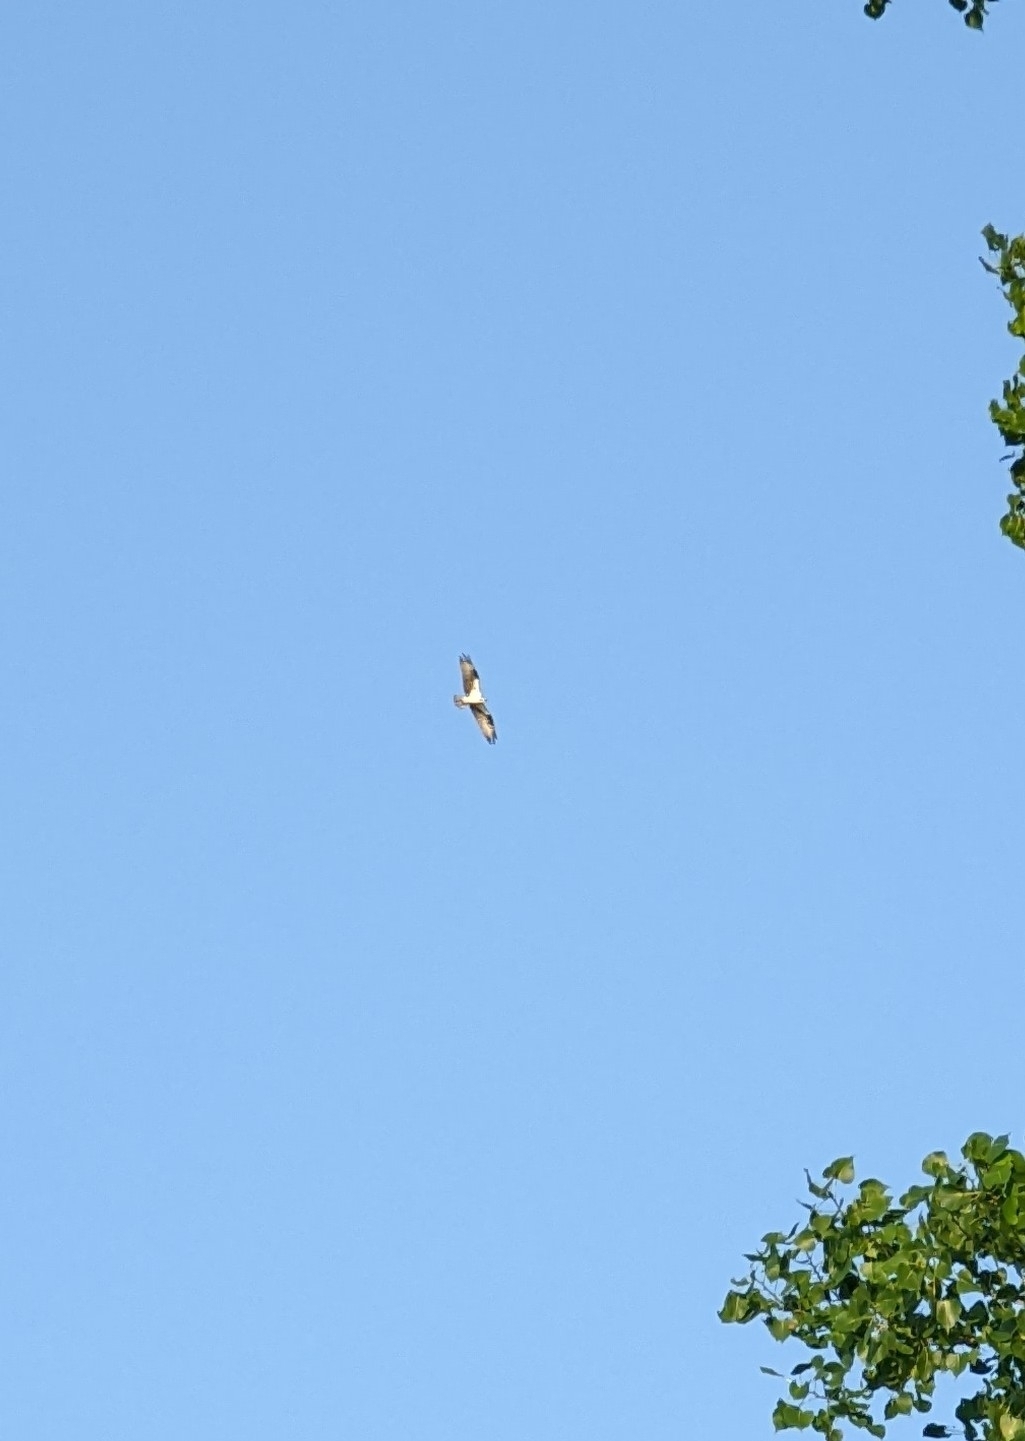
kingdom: Animalia
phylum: Chordata
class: Aves
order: Accipitriformes
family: Pandionidae
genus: Pandion
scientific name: Pandion haliaetus
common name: Osprey
